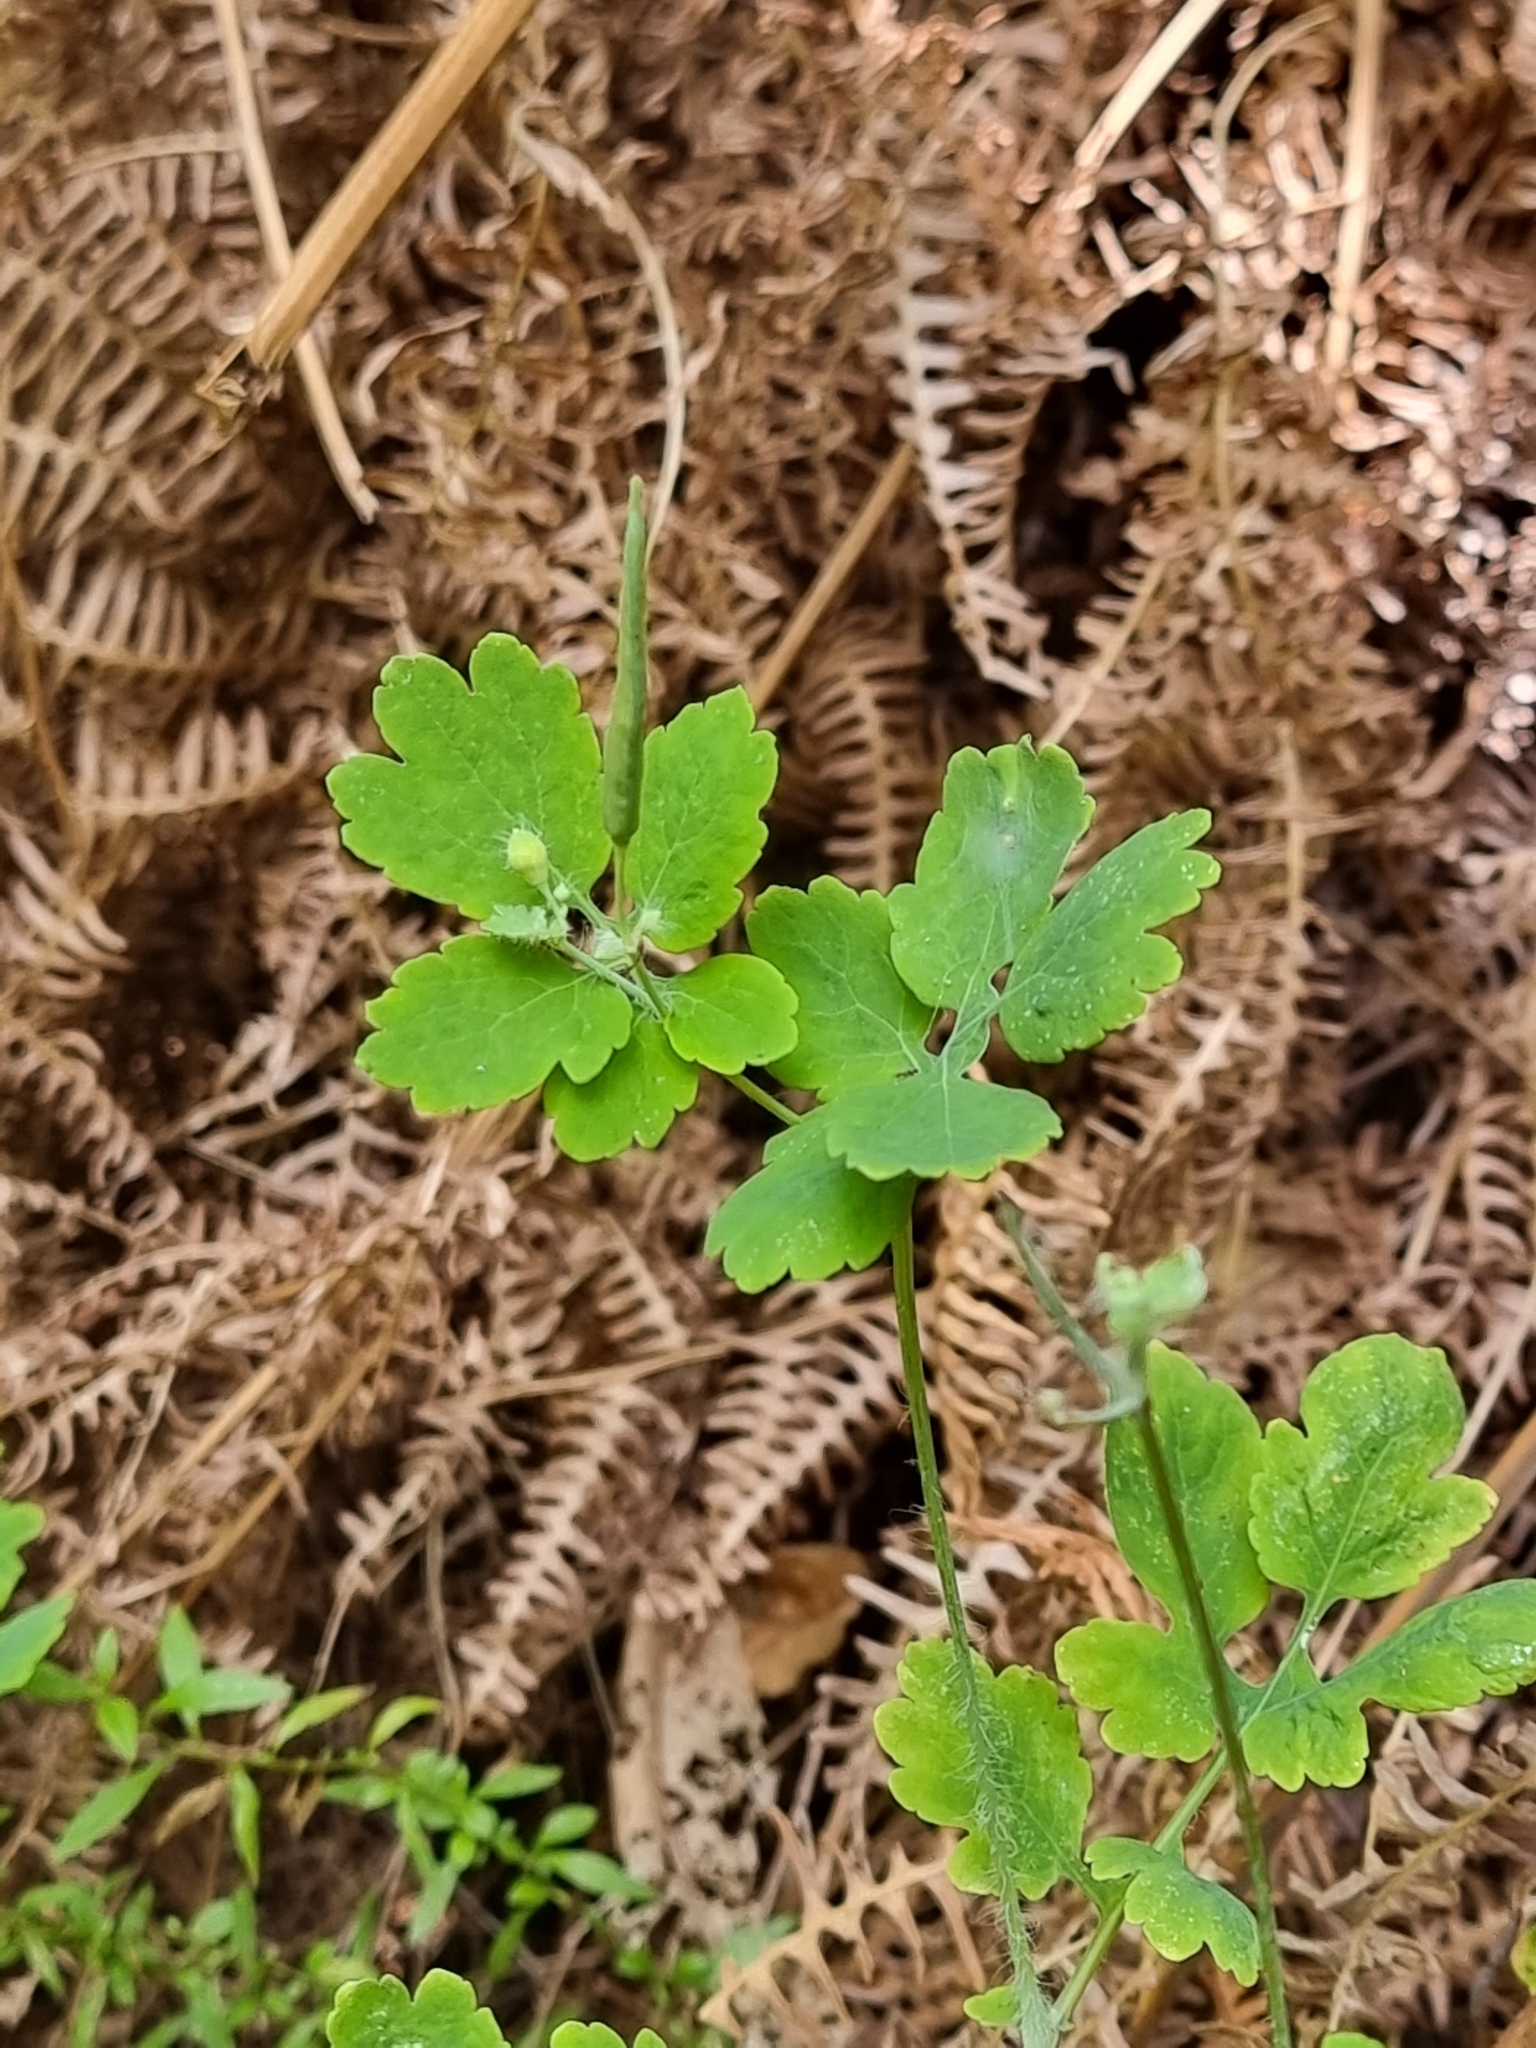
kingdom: Plantae
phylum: Tracheophyta
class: Magnoliopsida
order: Ranunculales
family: Papaveraceae
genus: Chelidonium
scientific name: Chelidonium majus
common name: Greater celandine
